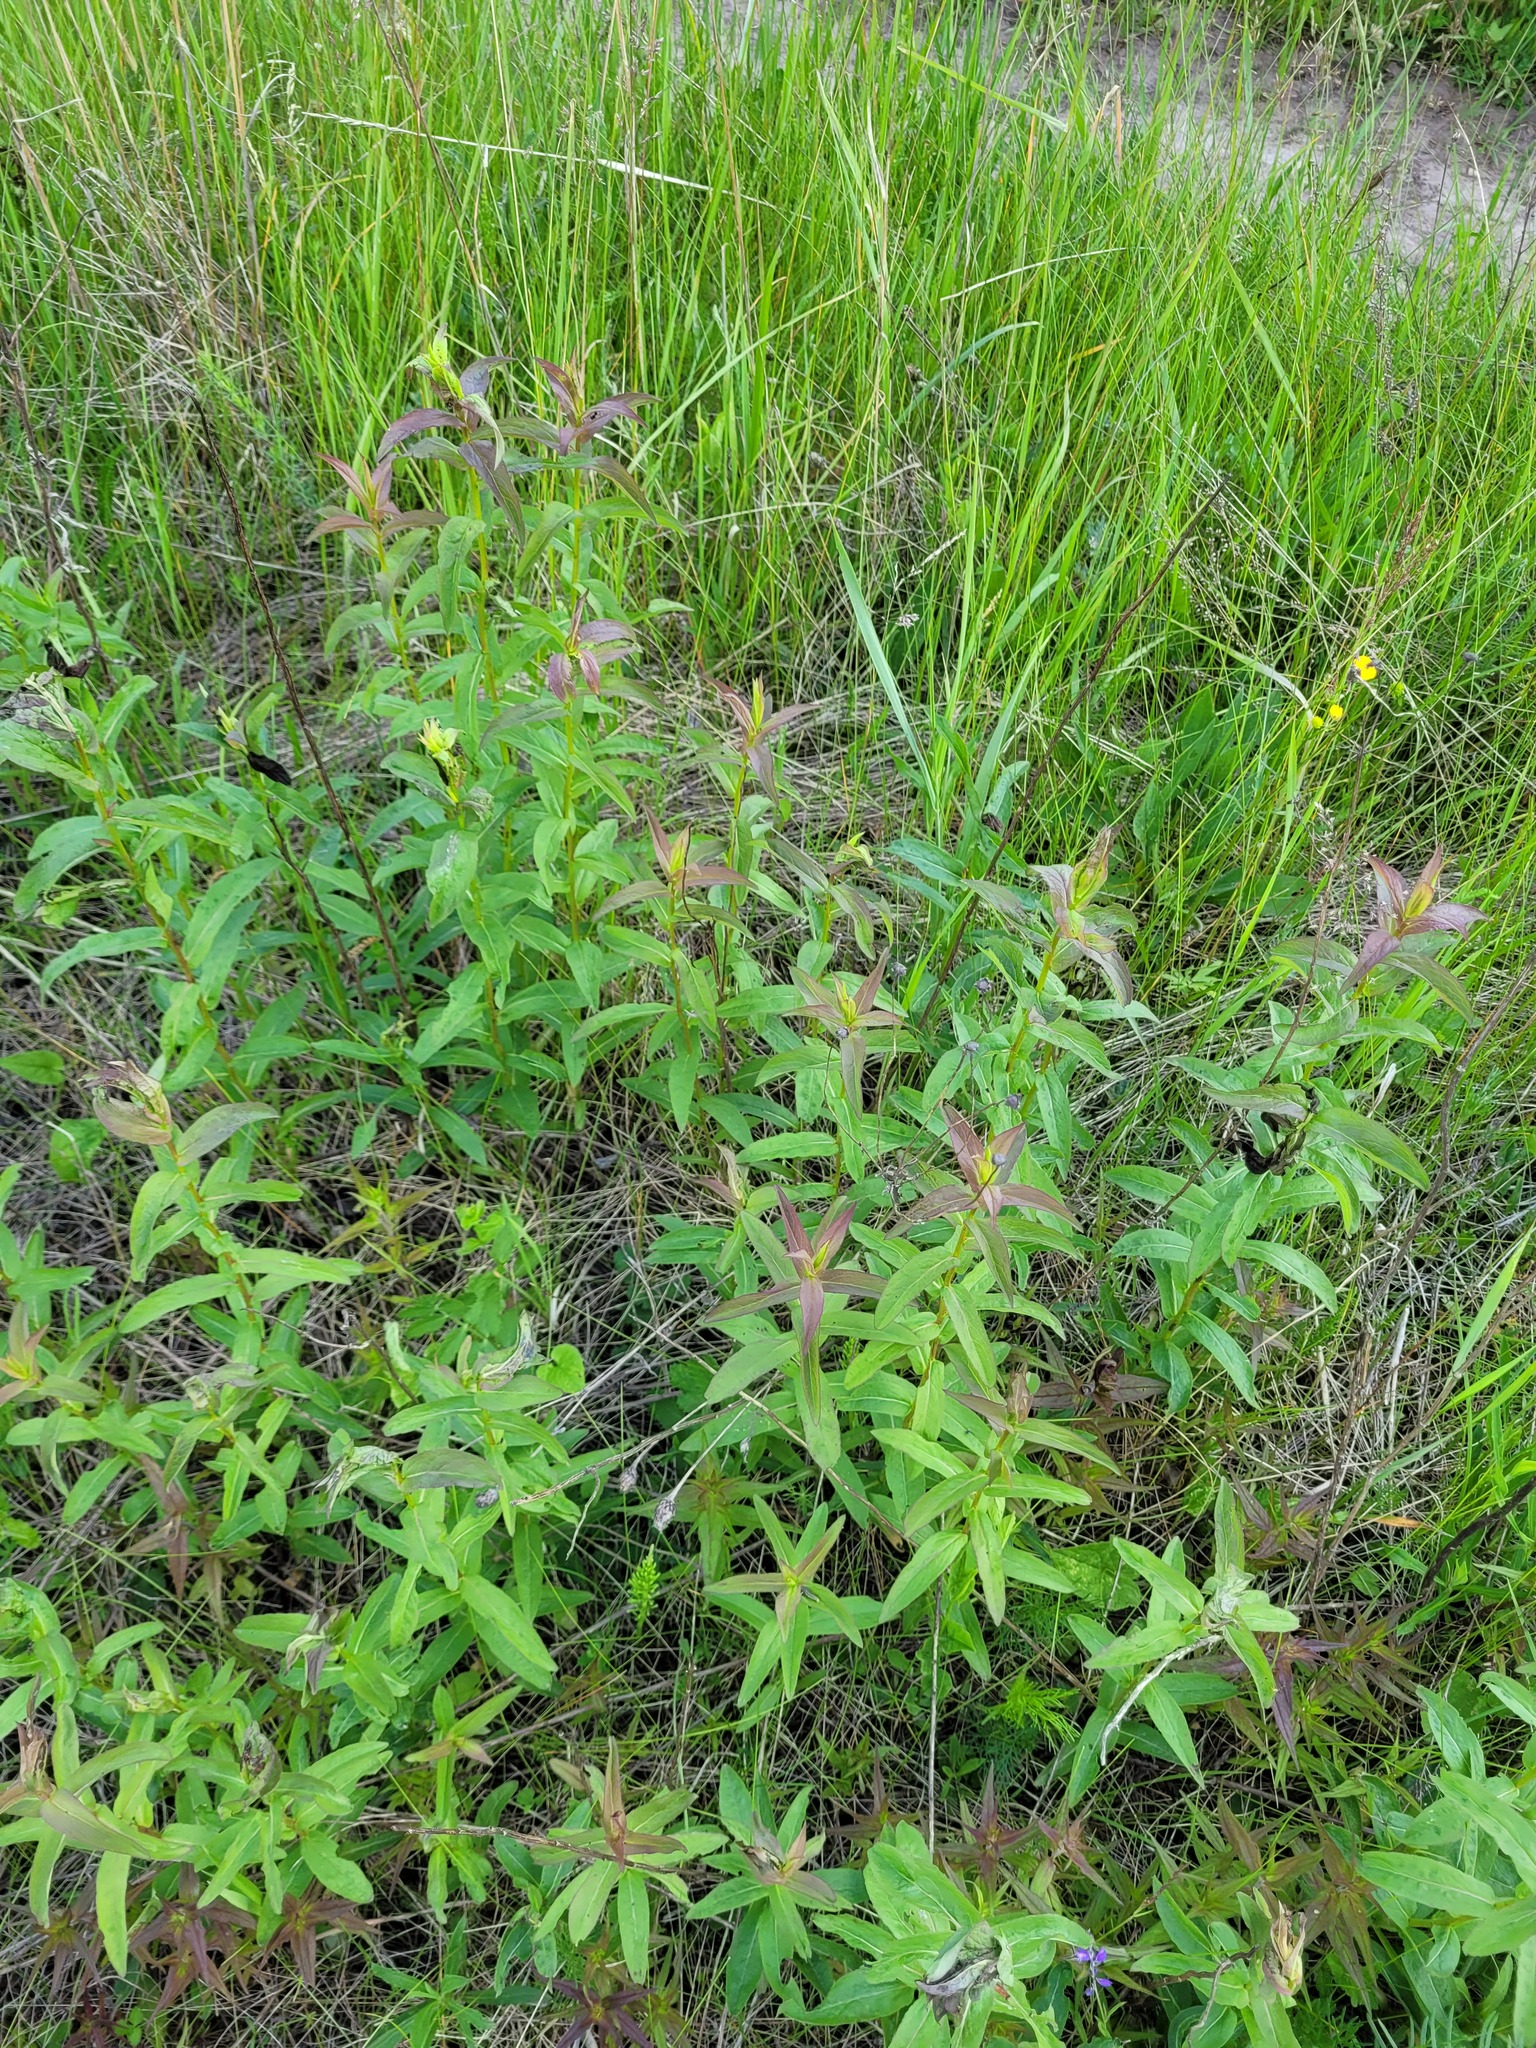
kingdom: Plantae
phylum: Tracheophyta
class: Magnoliopsida
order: Asterales
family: Asteraceae
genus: Pentanema
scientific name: Pentanema salicinum
